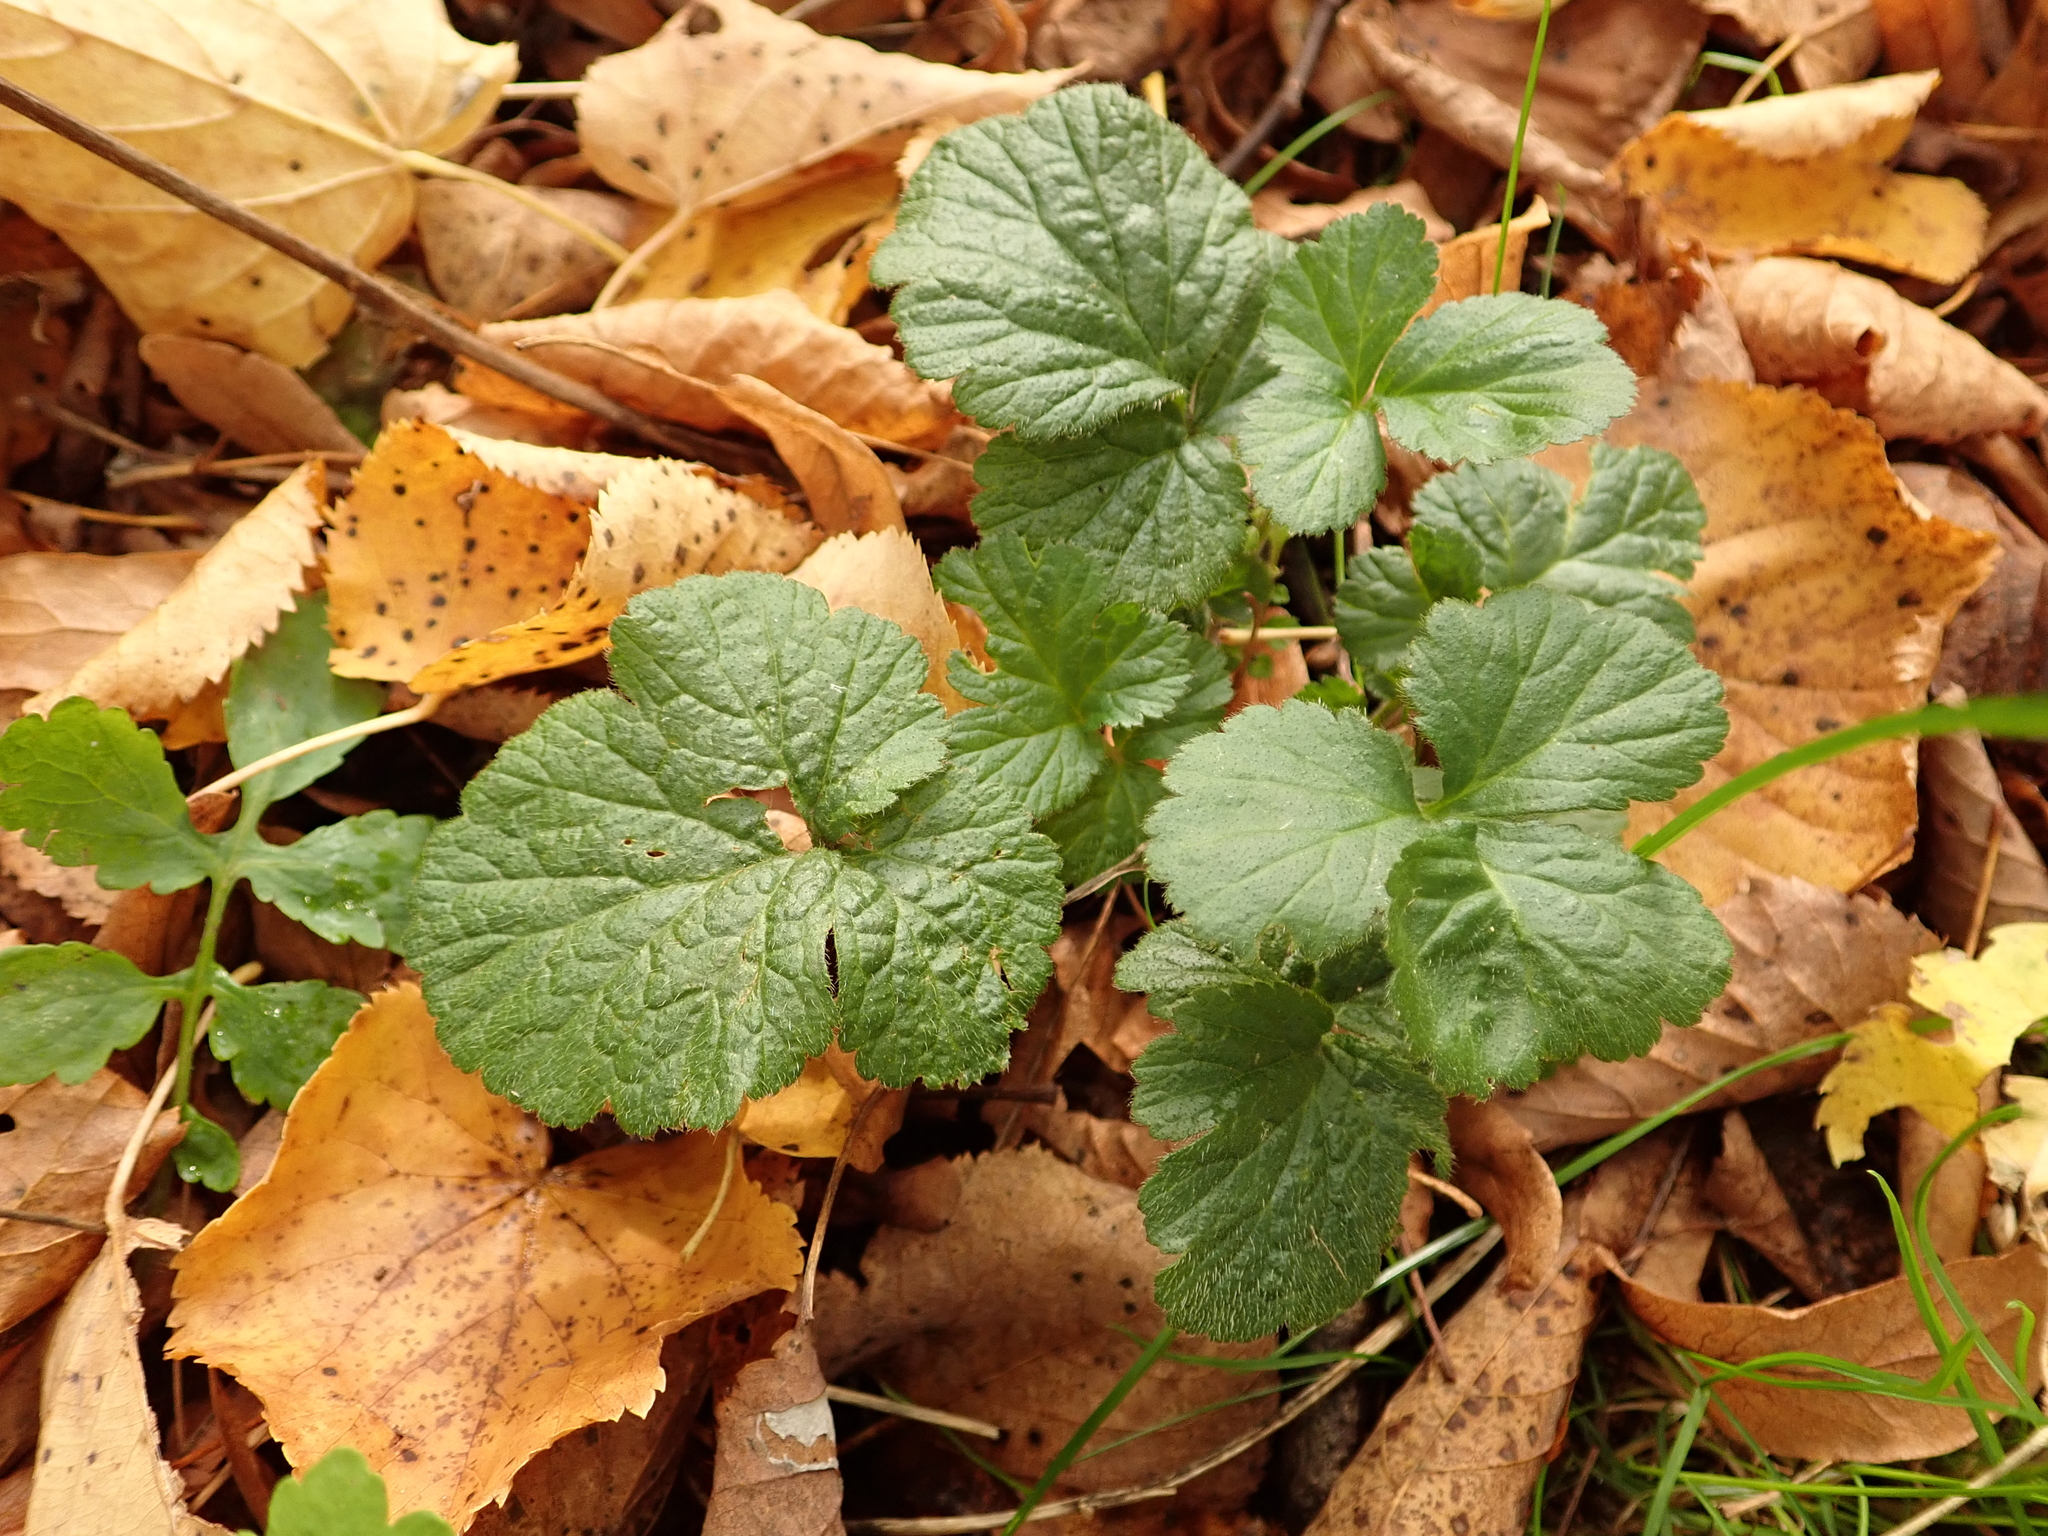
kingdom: Plantae
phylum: Tracheophyta
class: Magnoliopsida
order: Rosales
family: Rosaceae
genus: Geum
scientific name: Geum urbanum
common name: Wood avens
